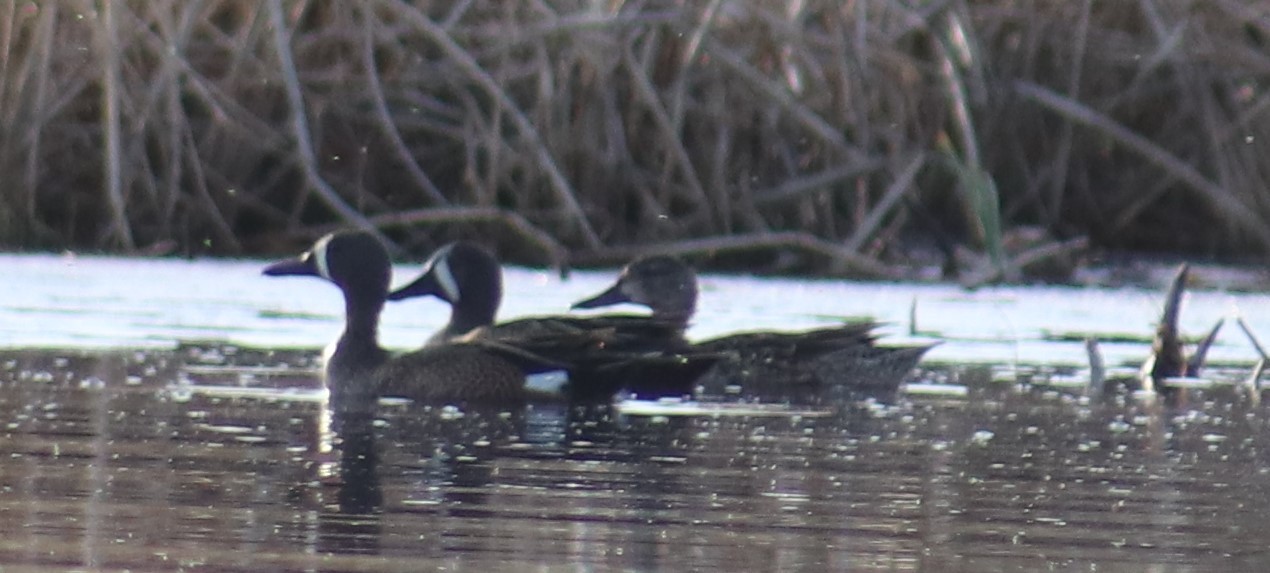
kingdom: Animalia
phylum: Chordata
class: Aves
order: Anseriformes
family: Anatidae
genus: Spatula
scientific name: Spatula discors
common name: Blue-winged teal
